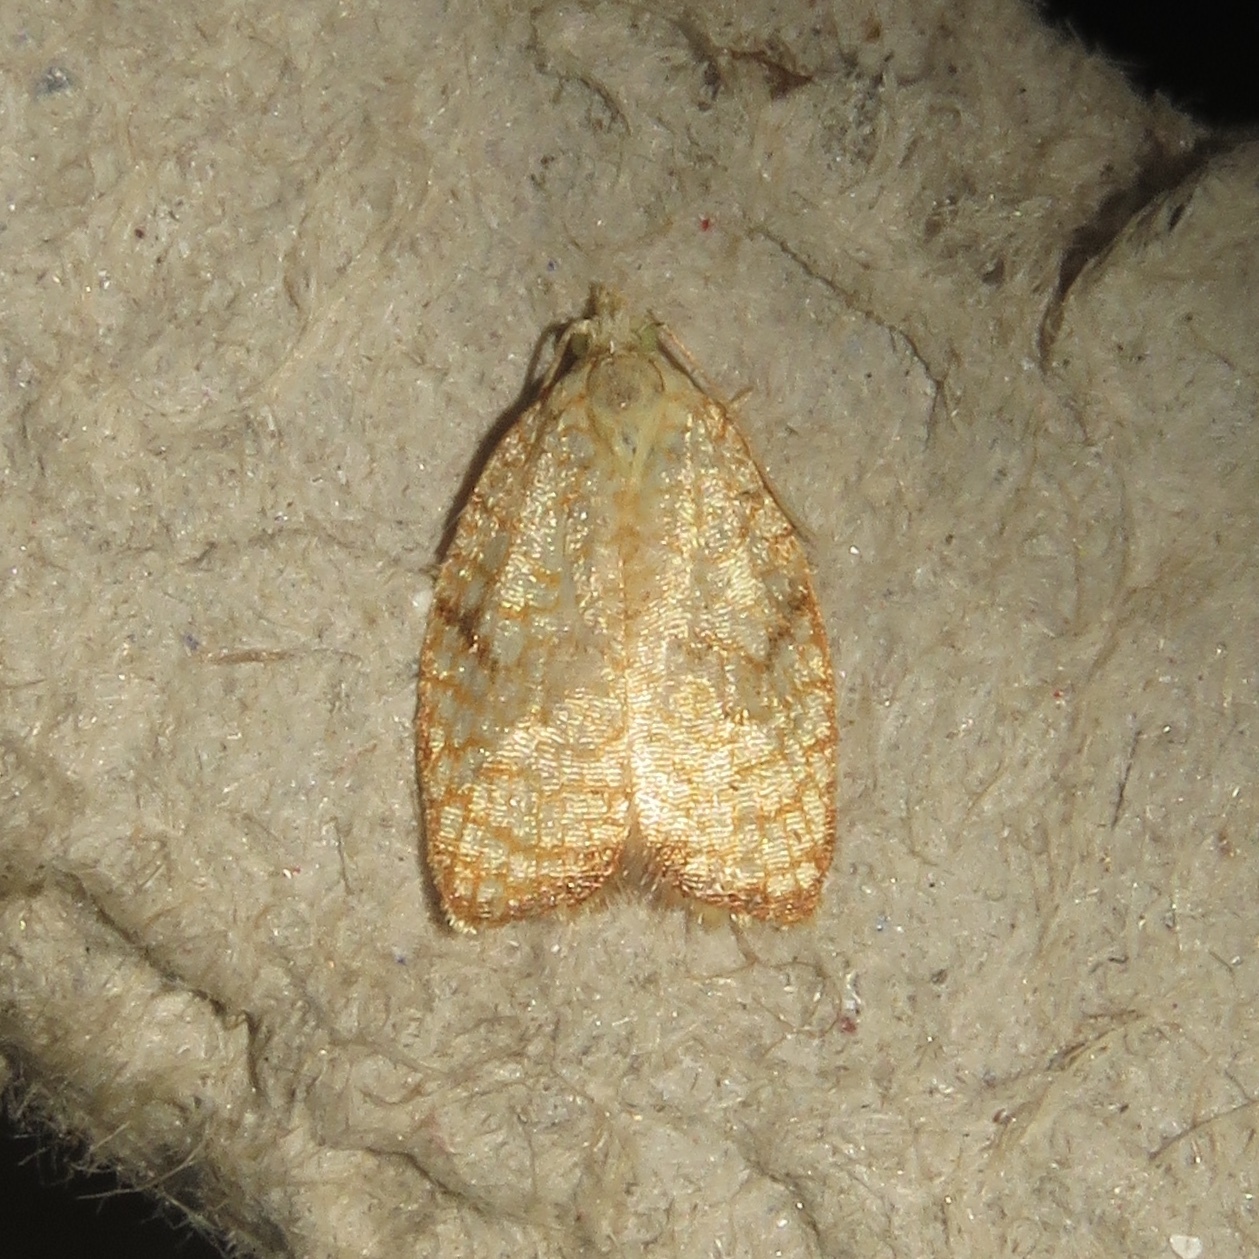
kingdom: Animalia
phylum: Arthropoda
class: Insecta
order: Lepidoptera
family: Tortricidae
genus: Acleris
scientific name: Acleris forsskaleana
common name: Maple button
